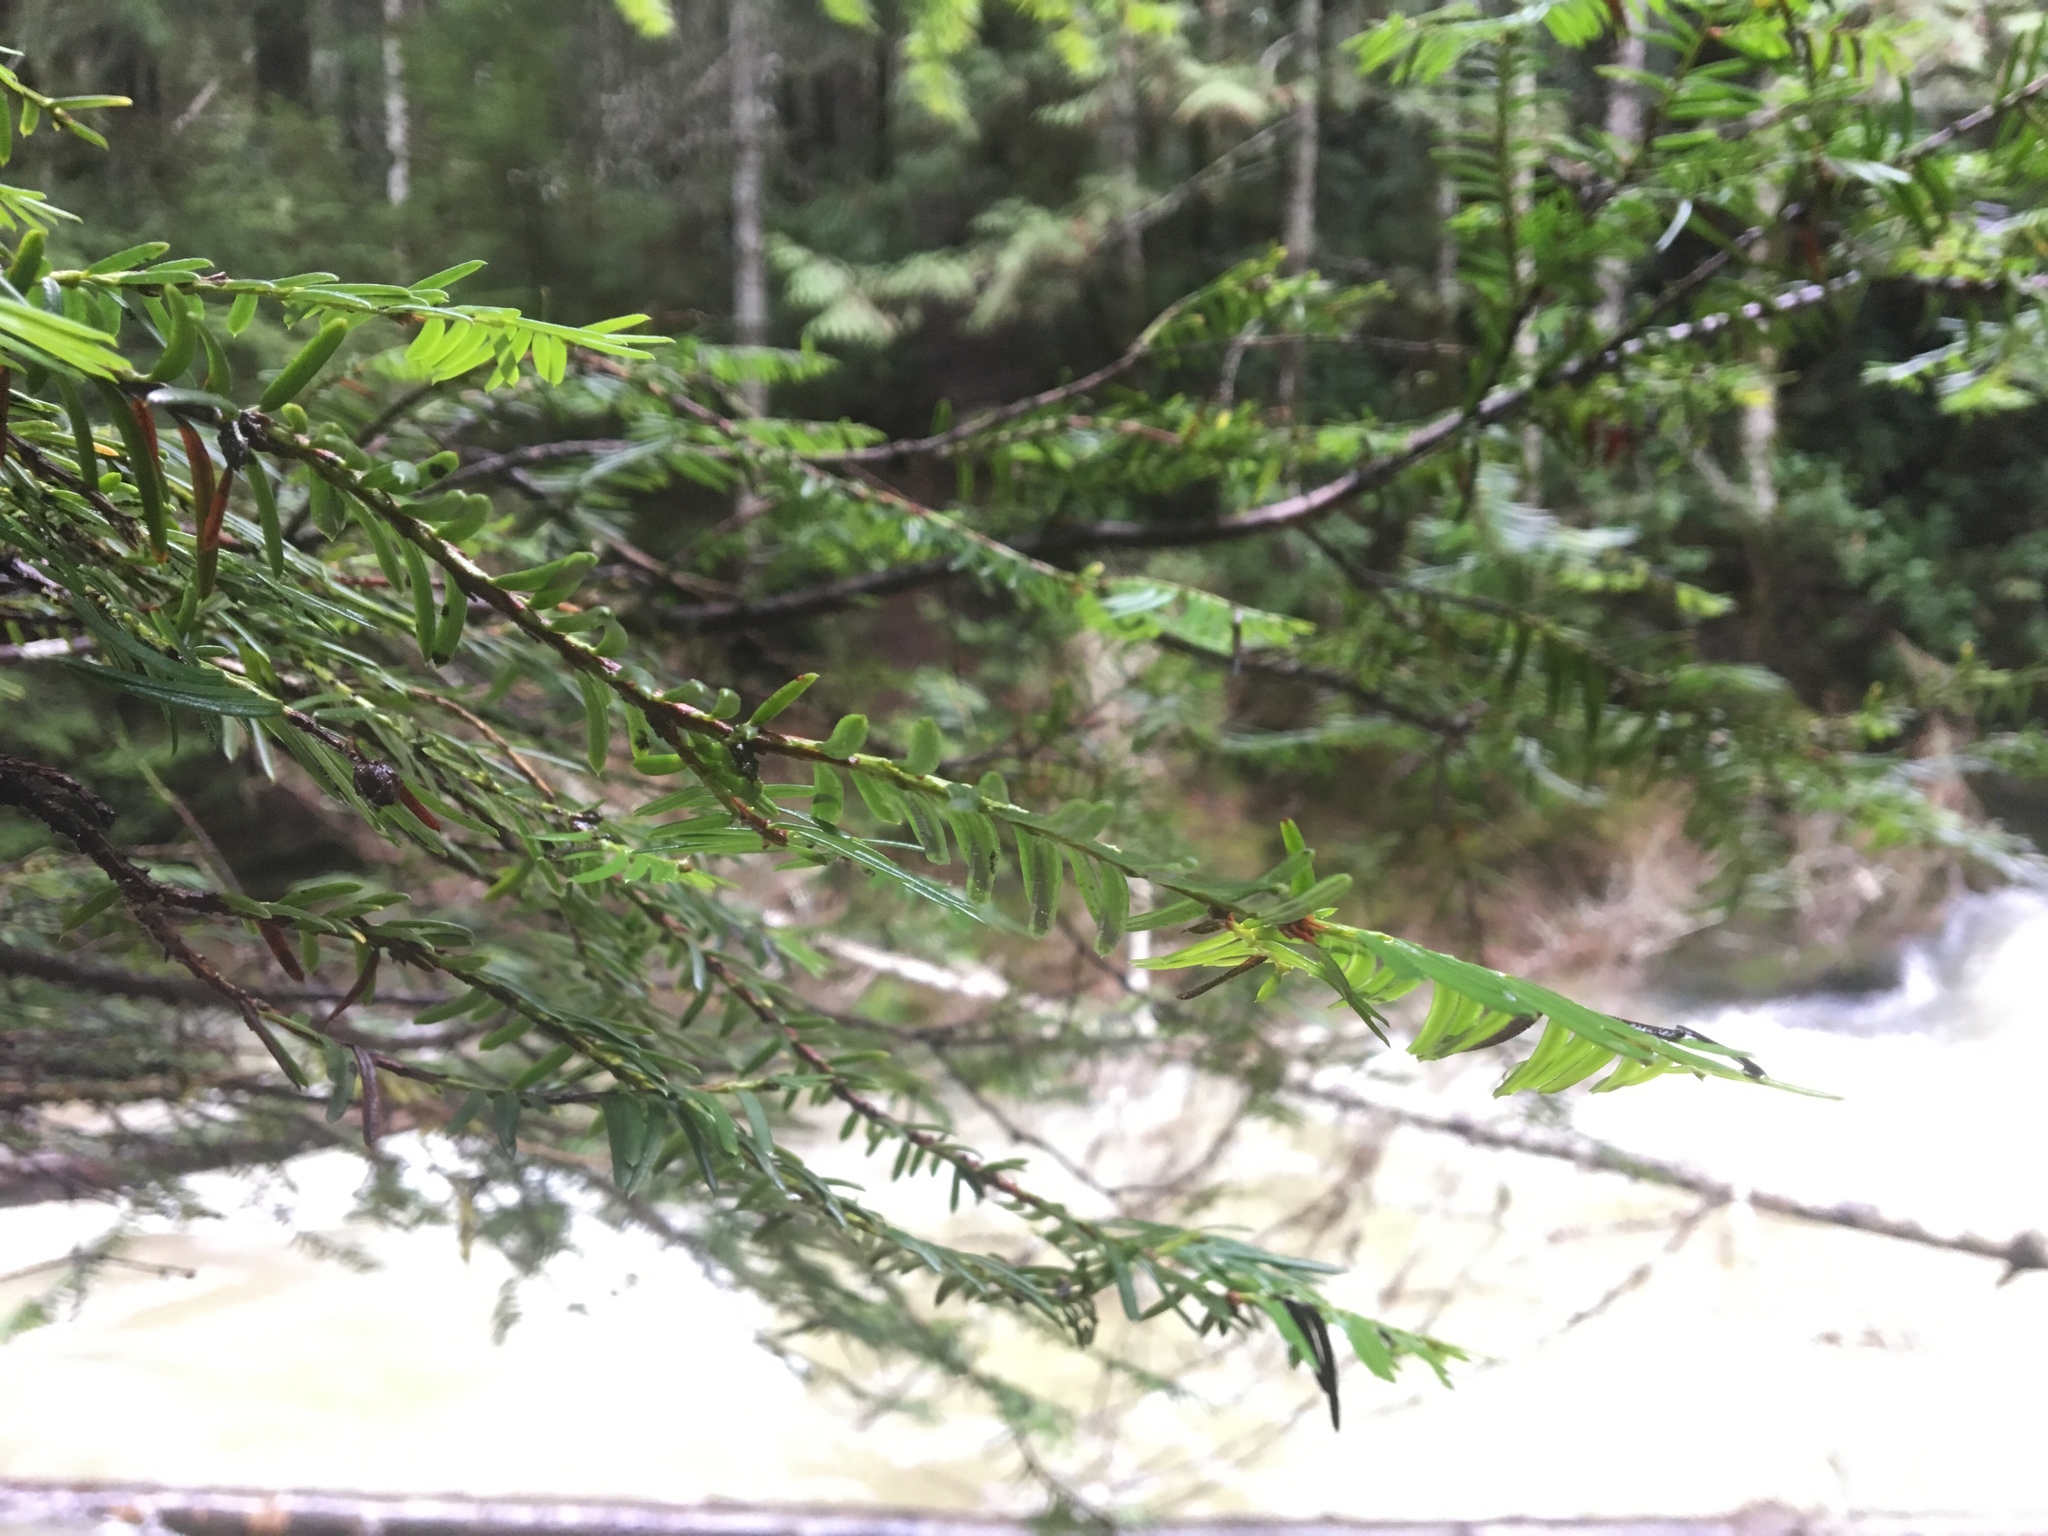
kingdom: Plantae
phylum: Tracheophyta
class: Pinopsida
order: Pinales
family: Taxaceae
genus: Taxus
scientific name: Taxus brevifolia
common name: Pacific yew
